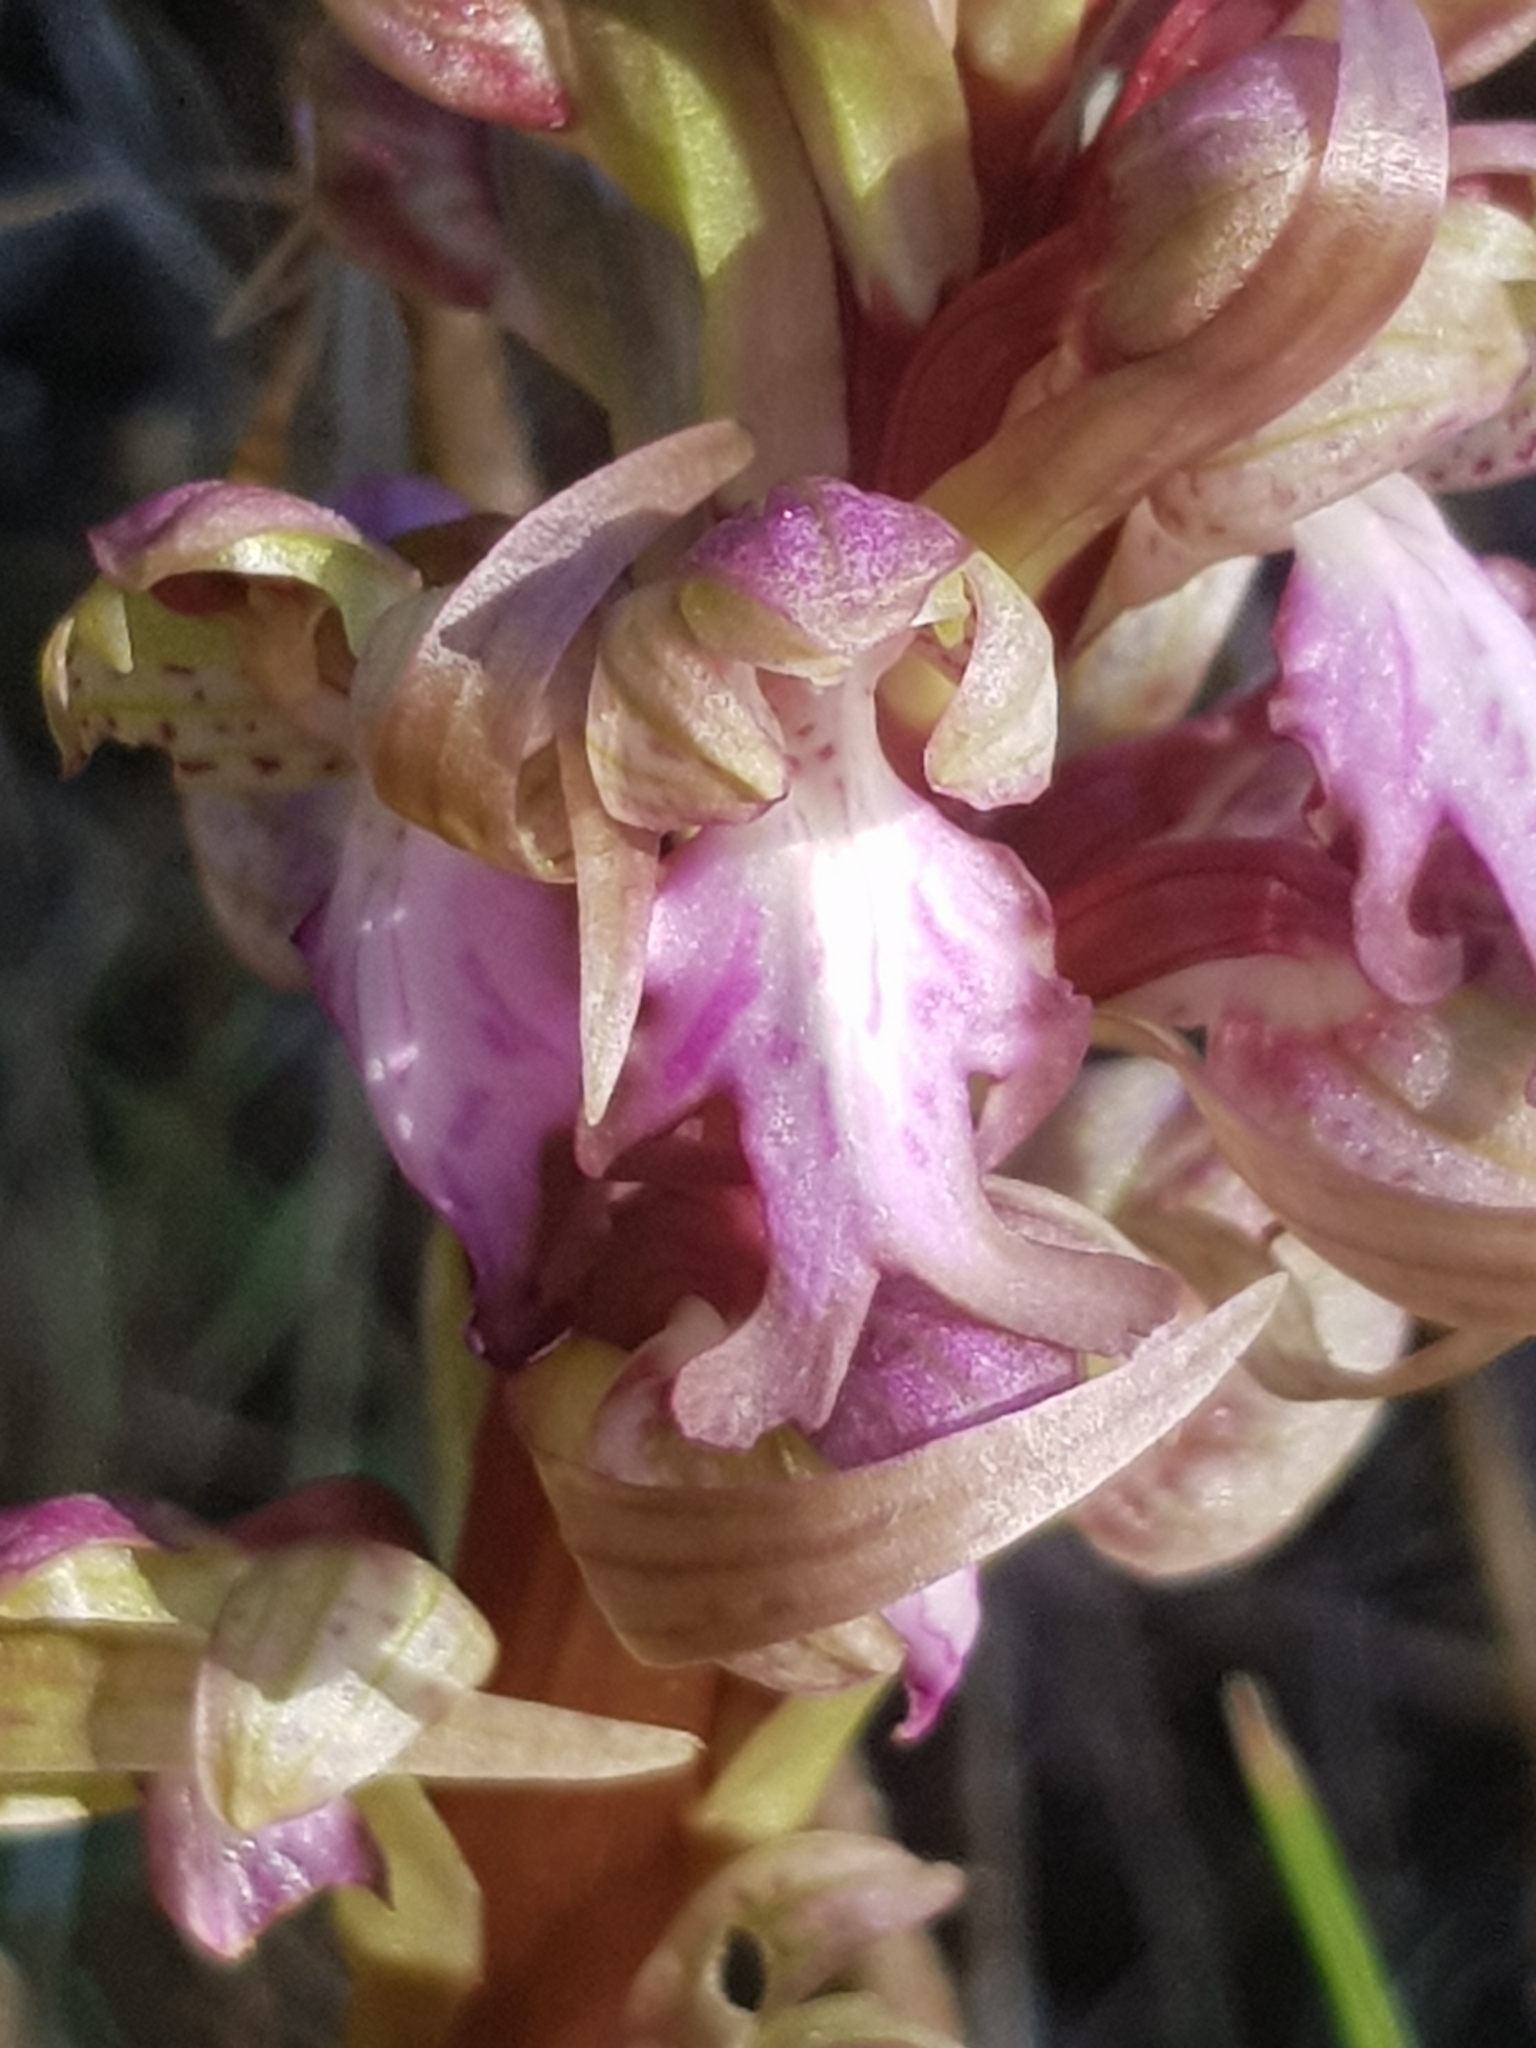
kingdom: Plantae
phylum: Tracheophyta
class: Liliopsida
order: Asparagales
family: Orchidaceae
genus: Himantoglossum
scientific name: Himantoglossum robertianum
